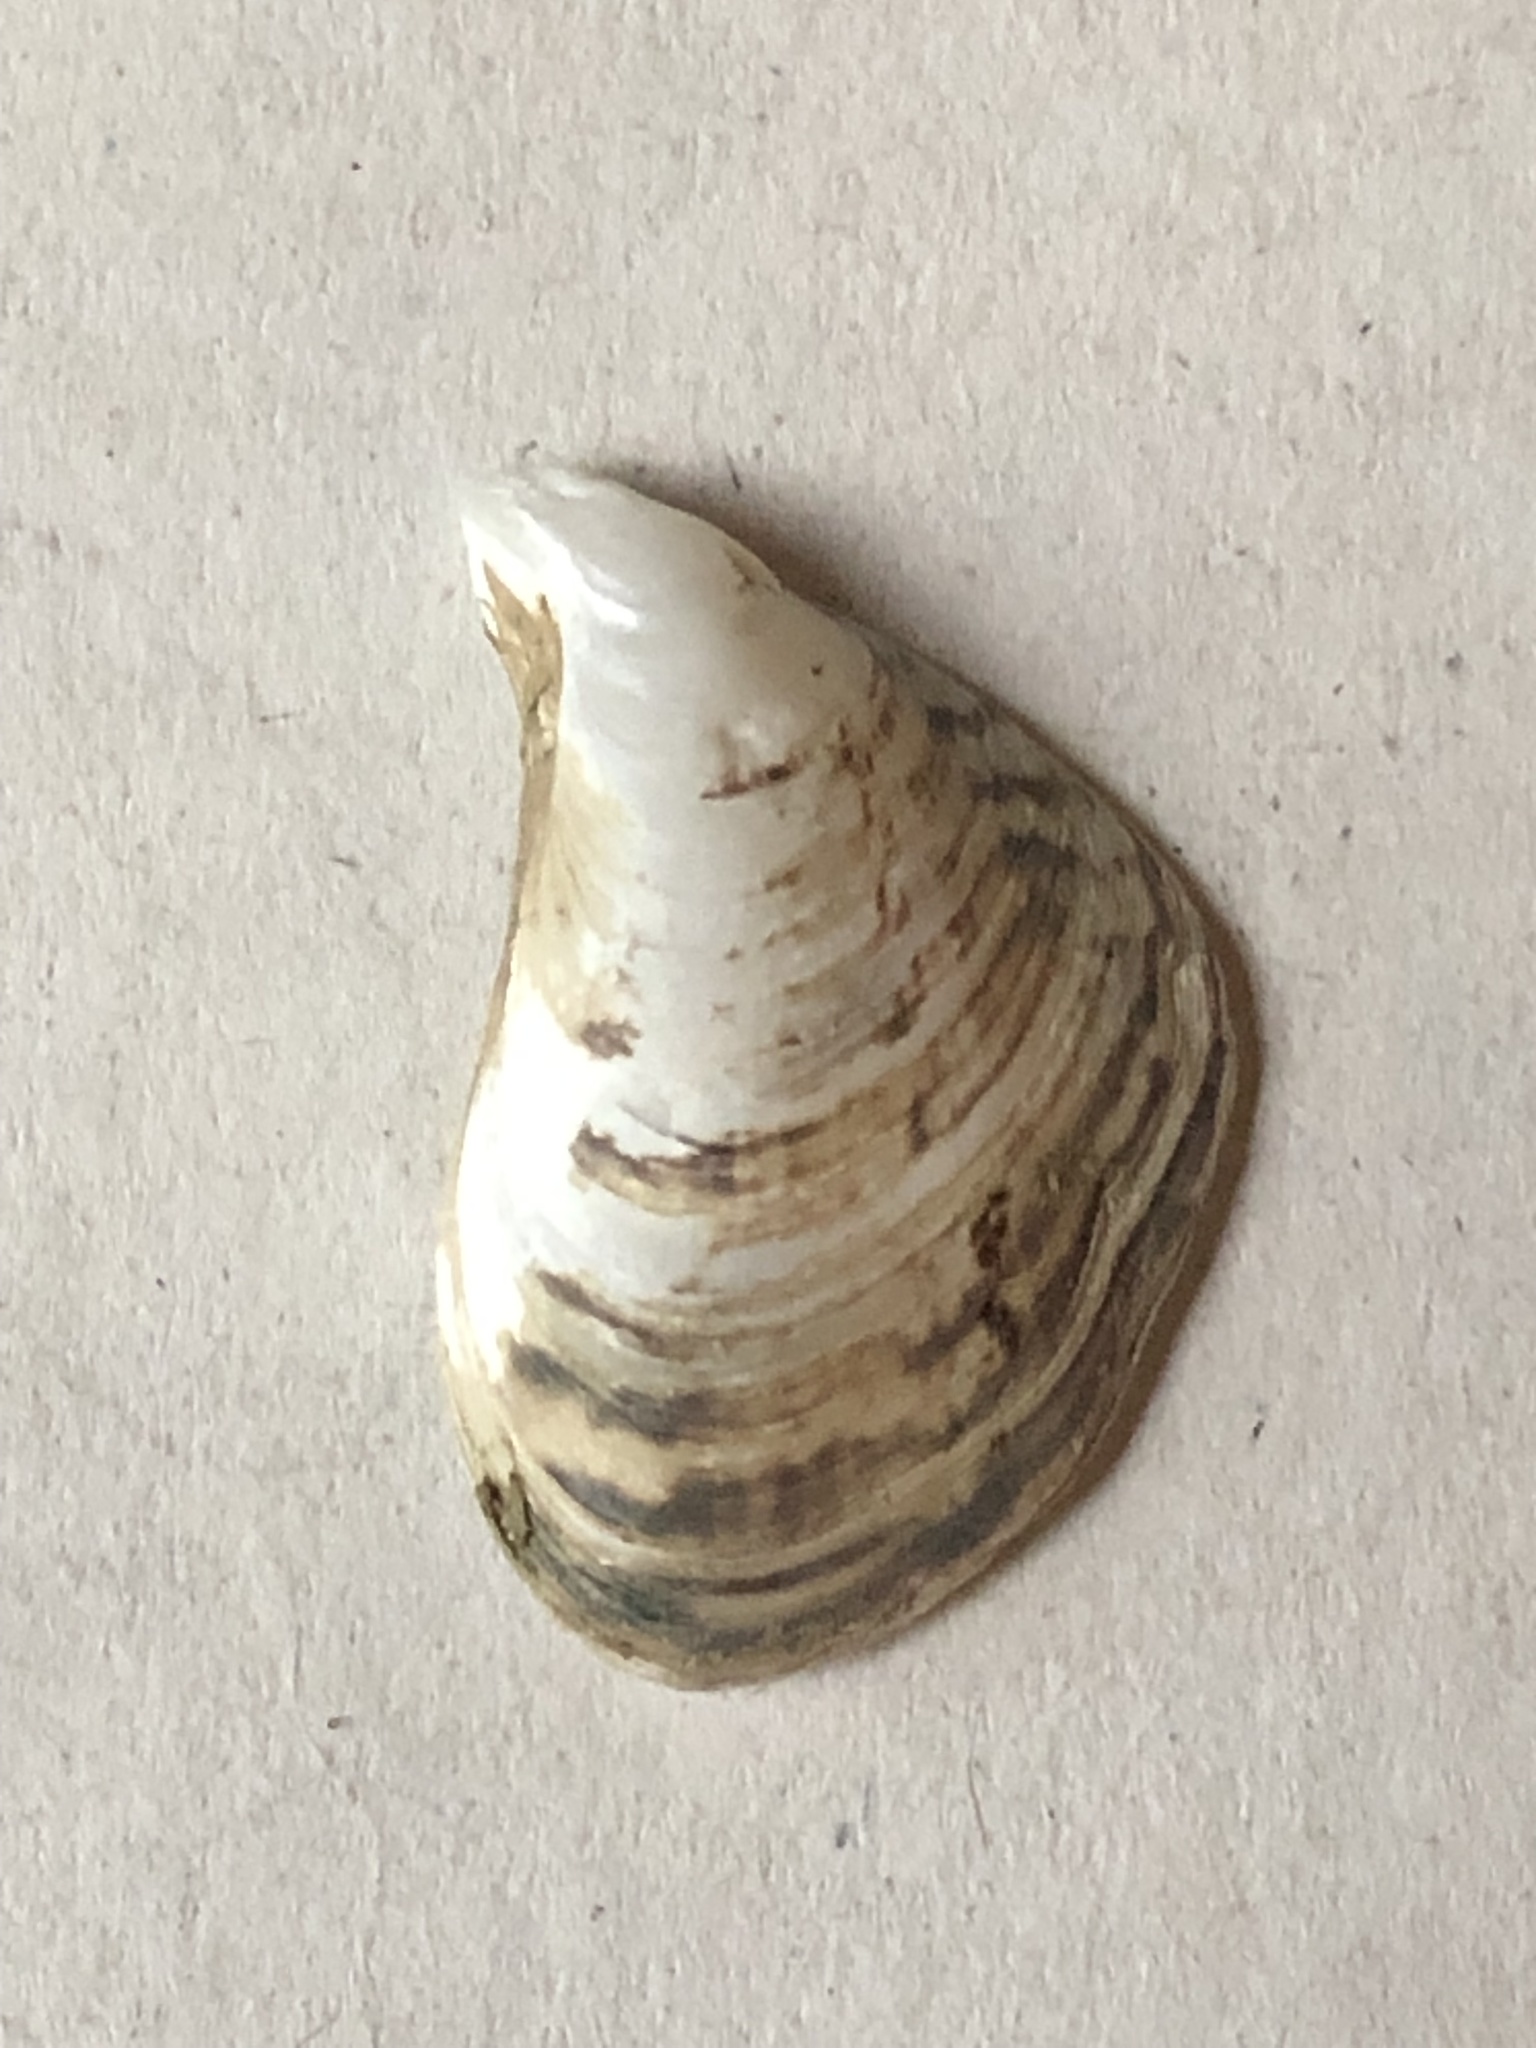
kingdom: Animalia
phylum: Mollusca
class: Bivalvia
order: Myida
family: Dreissenidae
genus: Dreissena
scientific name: Dreissena bugensis
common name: Quagga mussel
